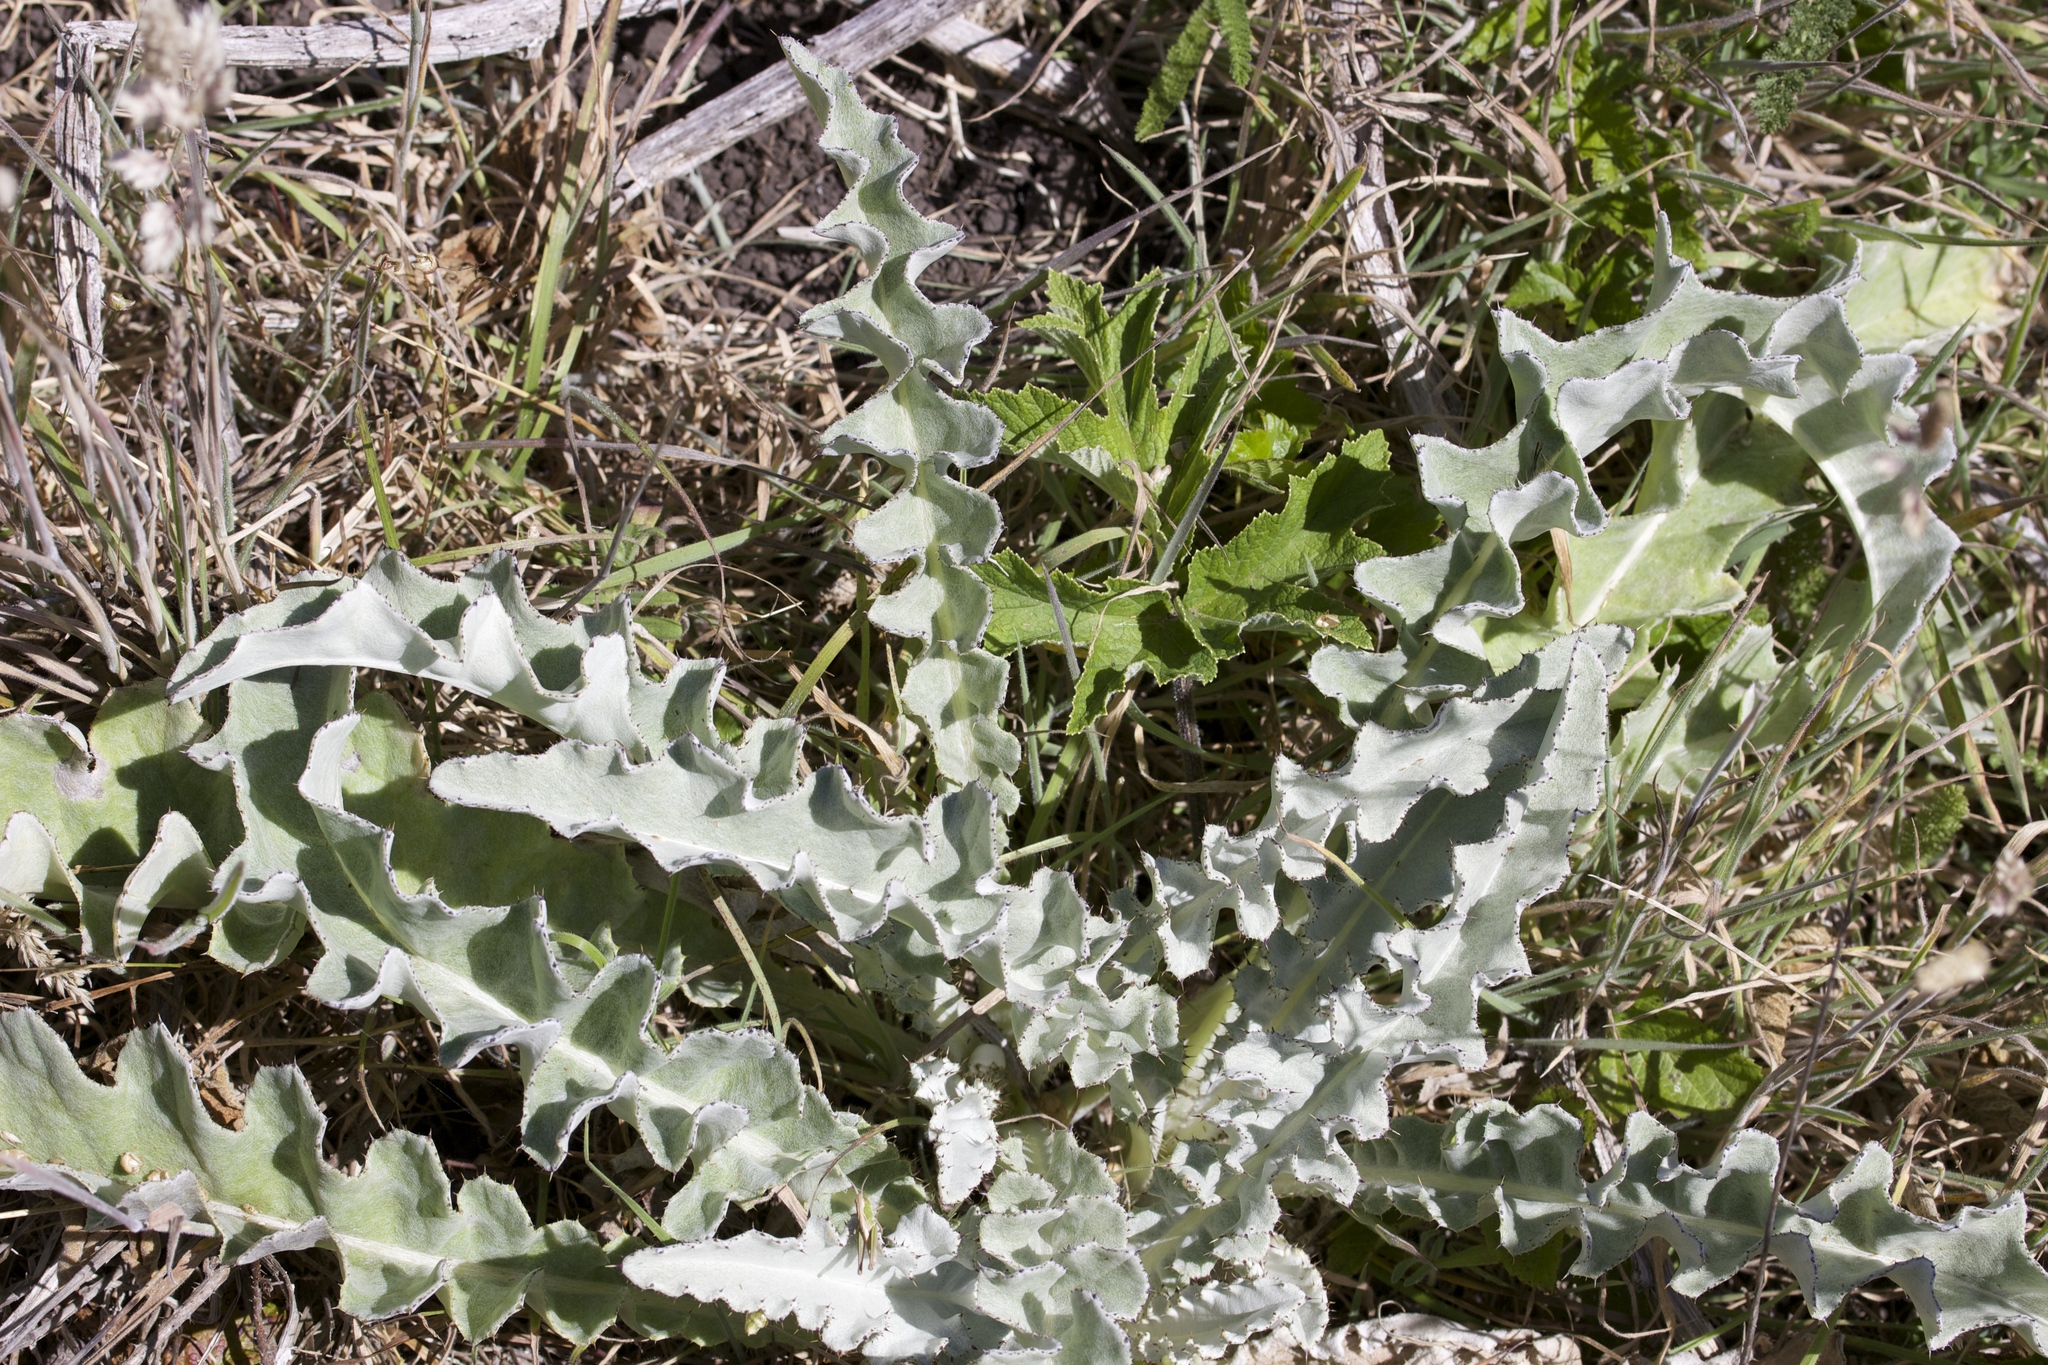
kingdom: Plantae
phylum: Tracheophyta
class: Magnoliopsida
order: Asterales
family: Asteraceae
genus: Cirsium
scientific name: Cirsium douglasii
